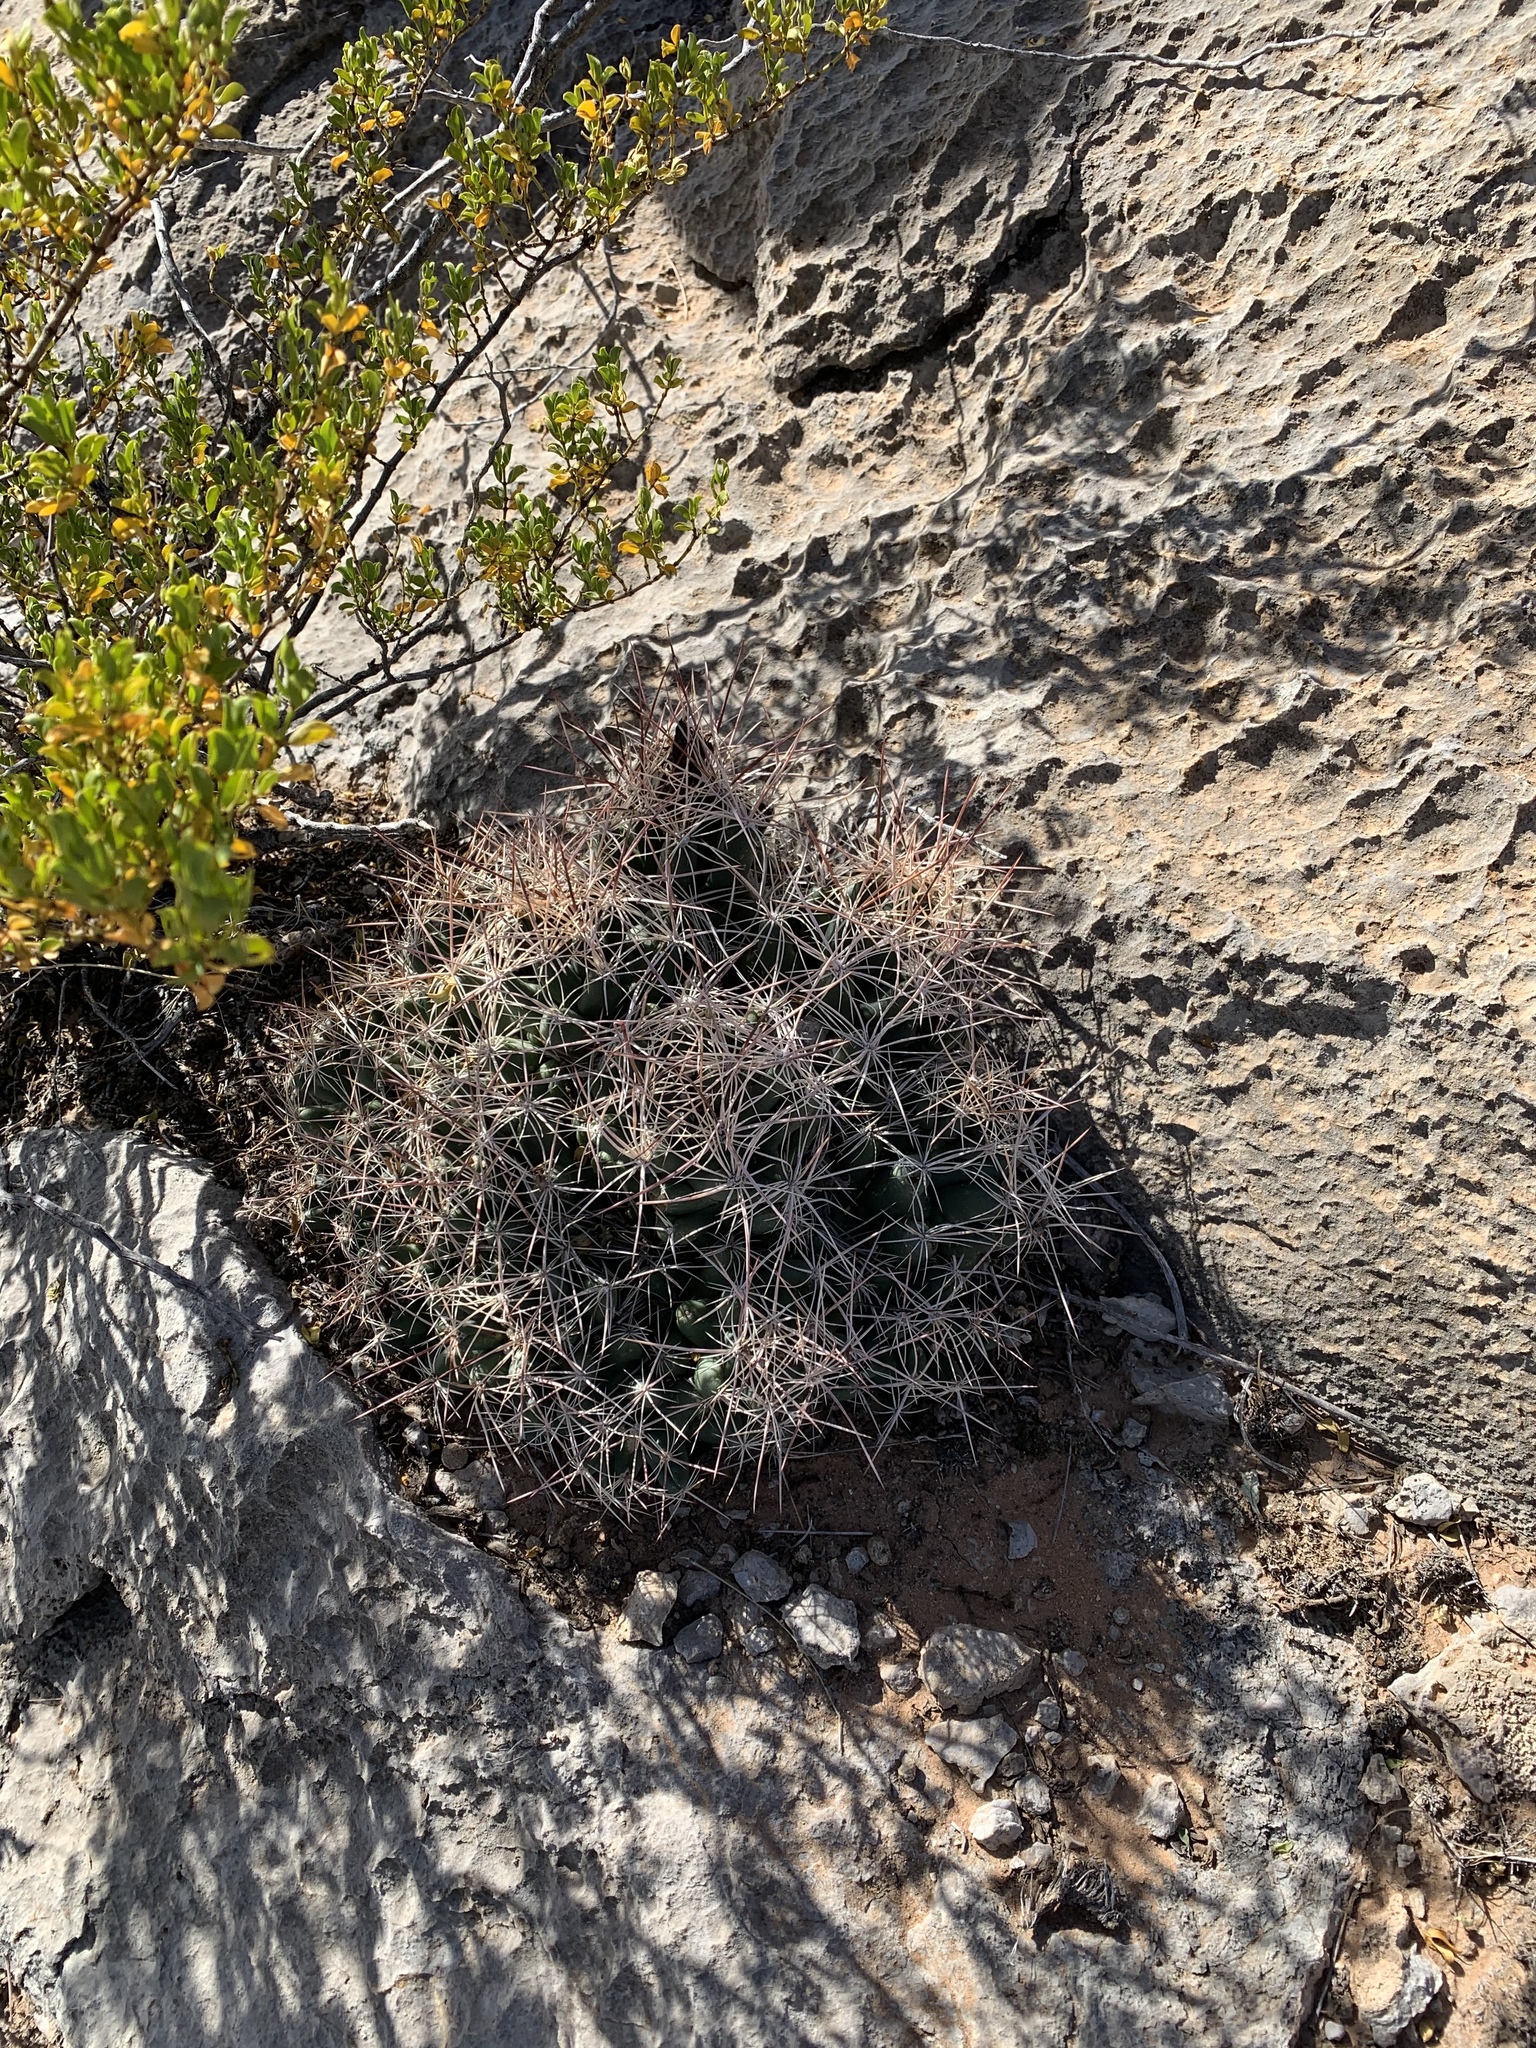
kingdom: Plantae
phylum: Tracheophyta
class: Magnoliopsida
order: Caryophyllales
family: Cactaceae
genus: Coryphantha
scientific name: Coryphantha macromeris
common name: Nipple beehive cactus
